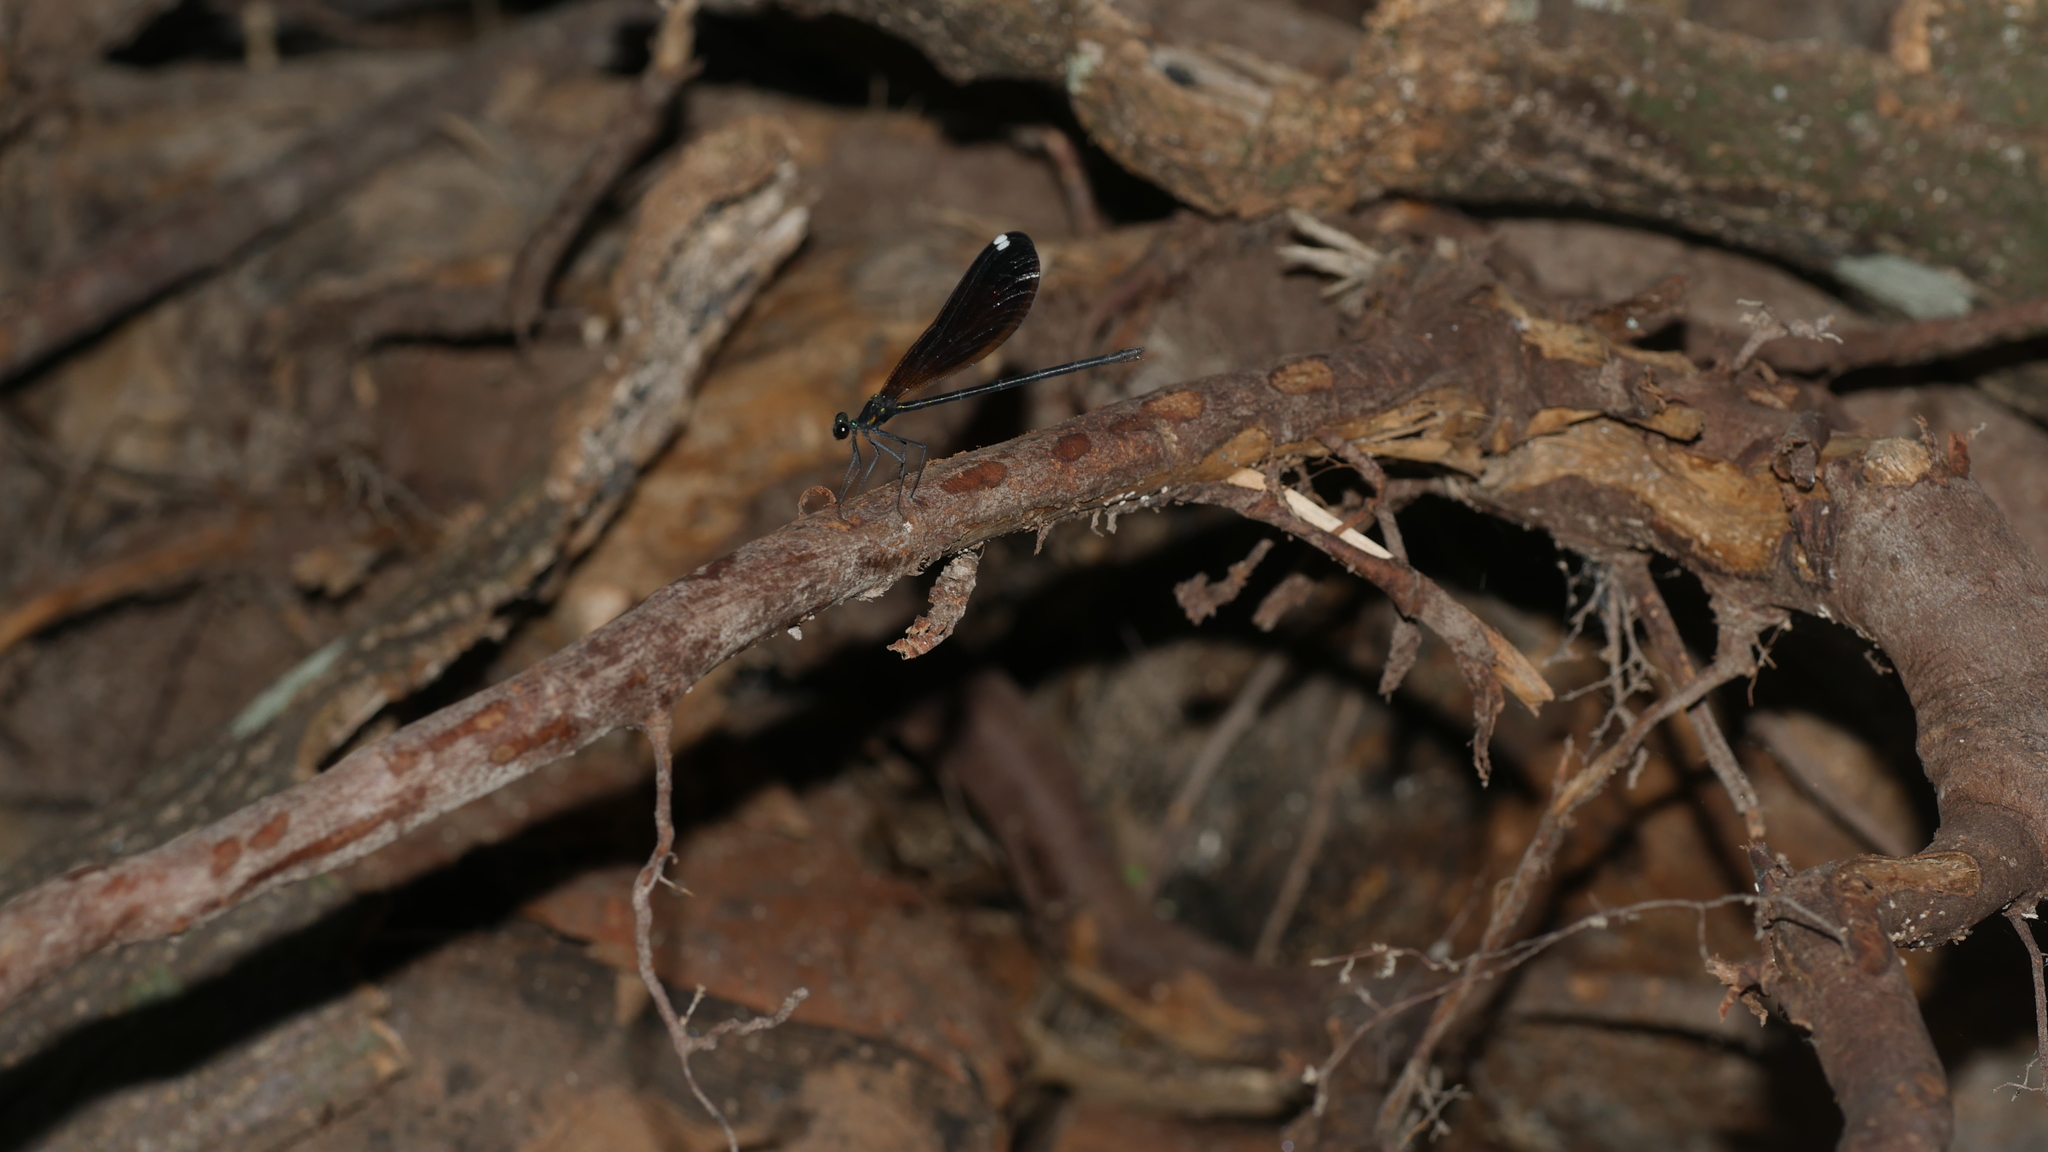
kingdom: Animalia
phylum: Arthropoda
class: Insecta
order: Odonata
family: Calopterygidae
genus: Calopteryx
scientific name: Calopteryx maculata
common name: Ebony jewelwing
